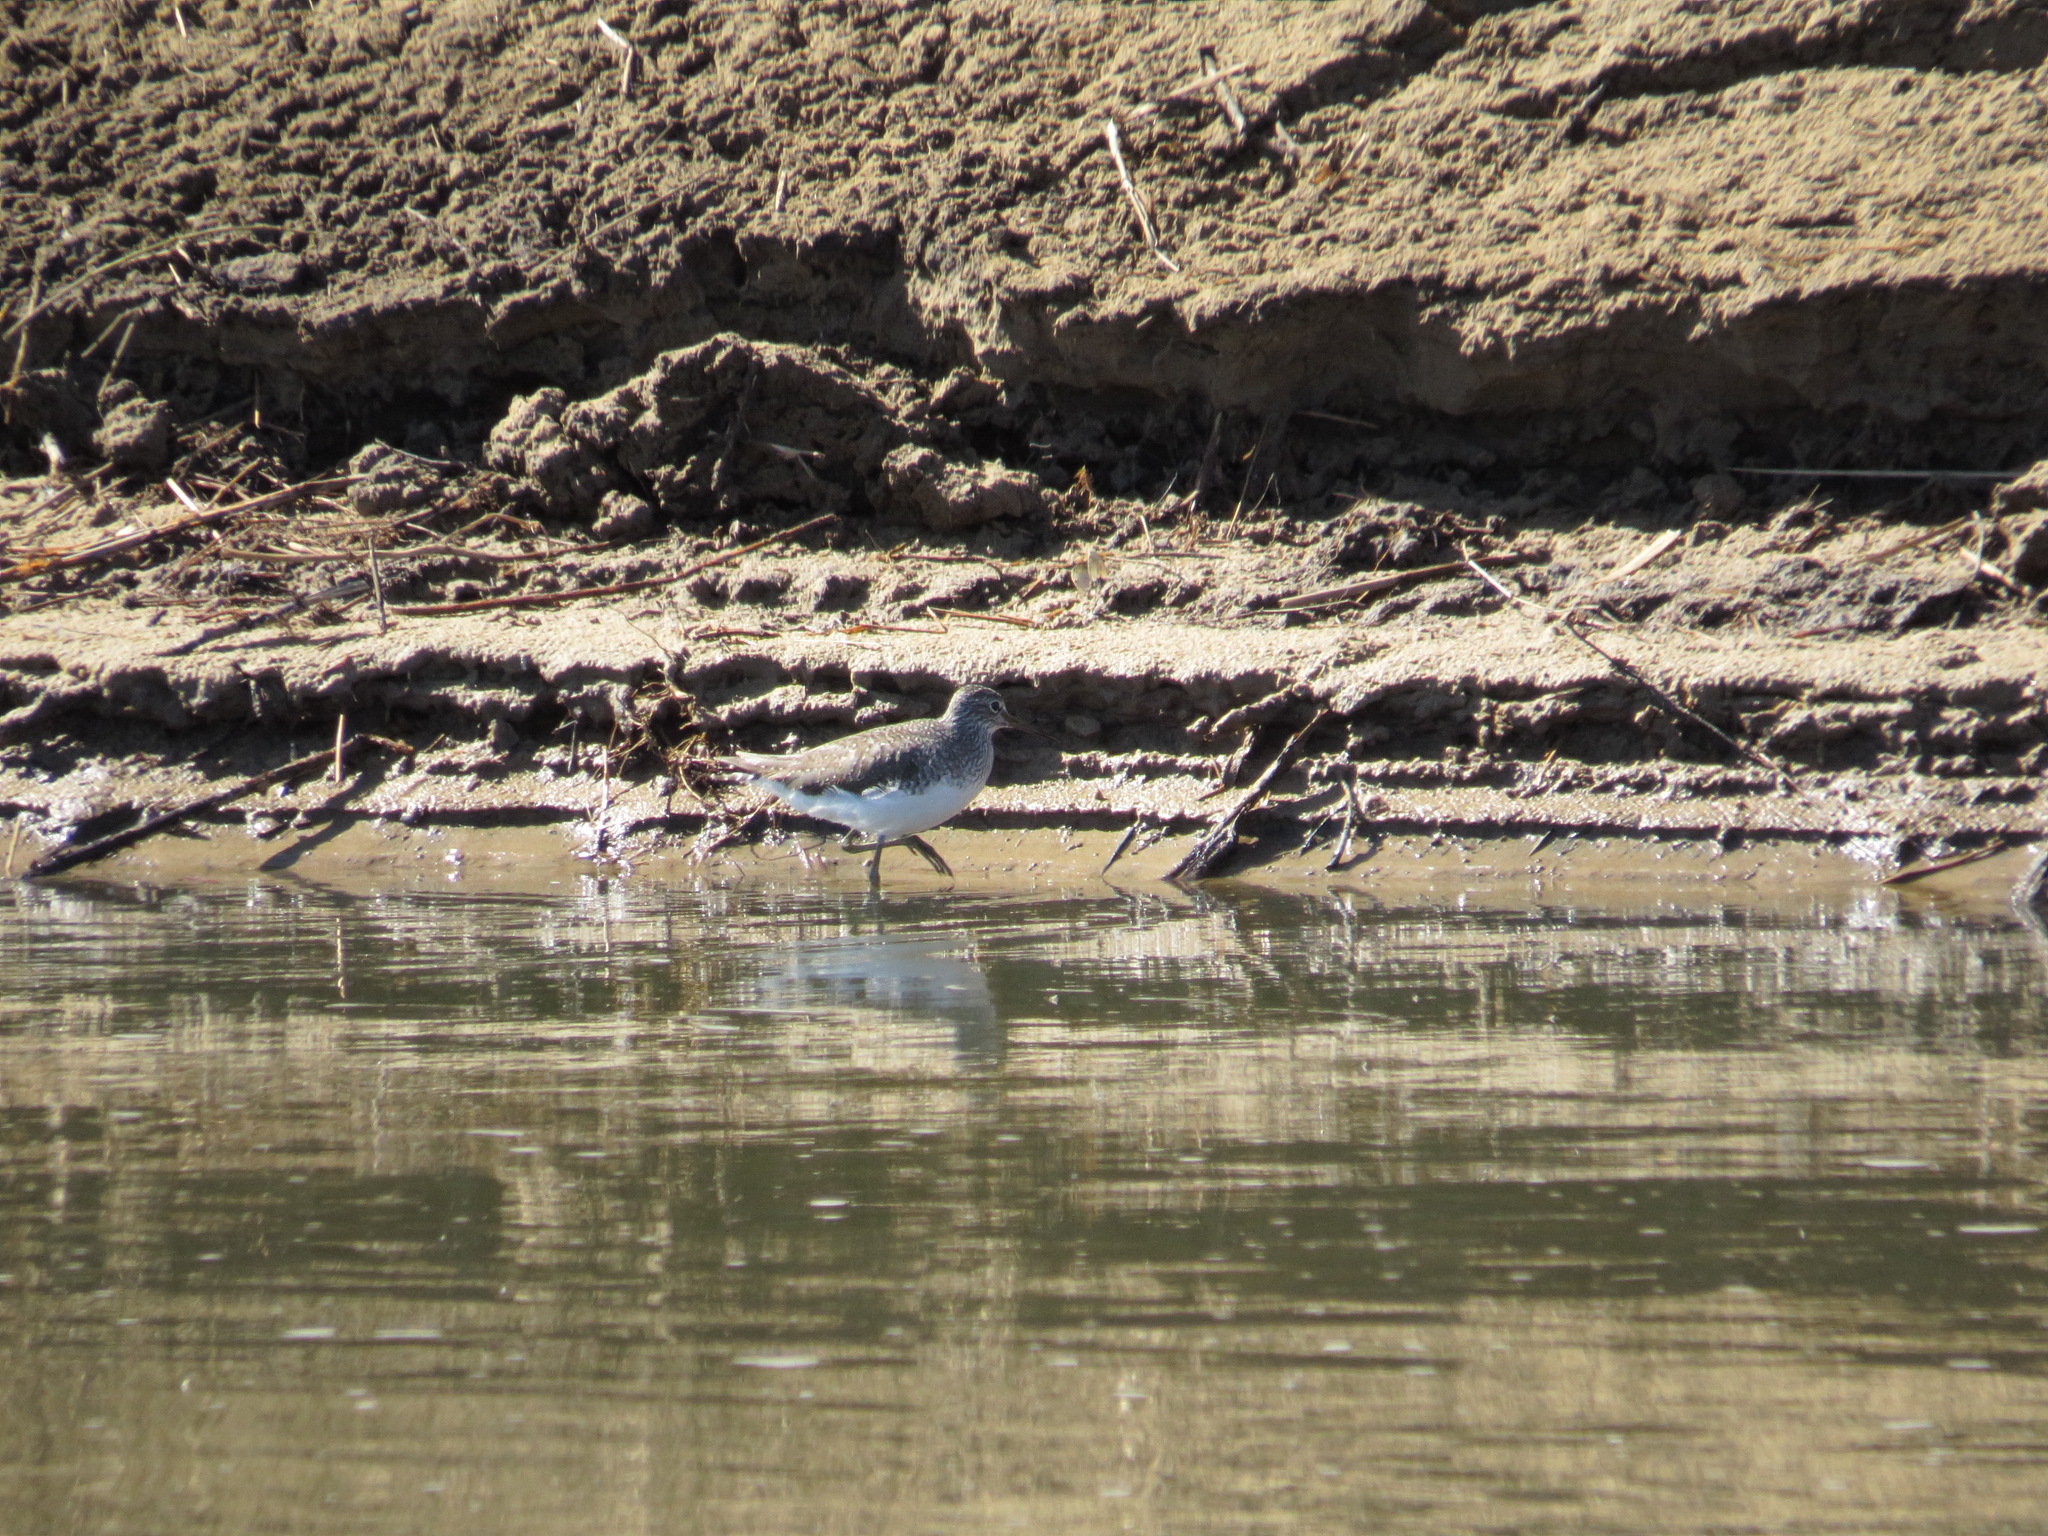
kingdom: Animalia
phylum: Chordata
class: Aves
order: Charadriiformes
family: Scolopacidae
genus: Tringa
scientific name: Tringa ochropus
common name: Green sandpiper
